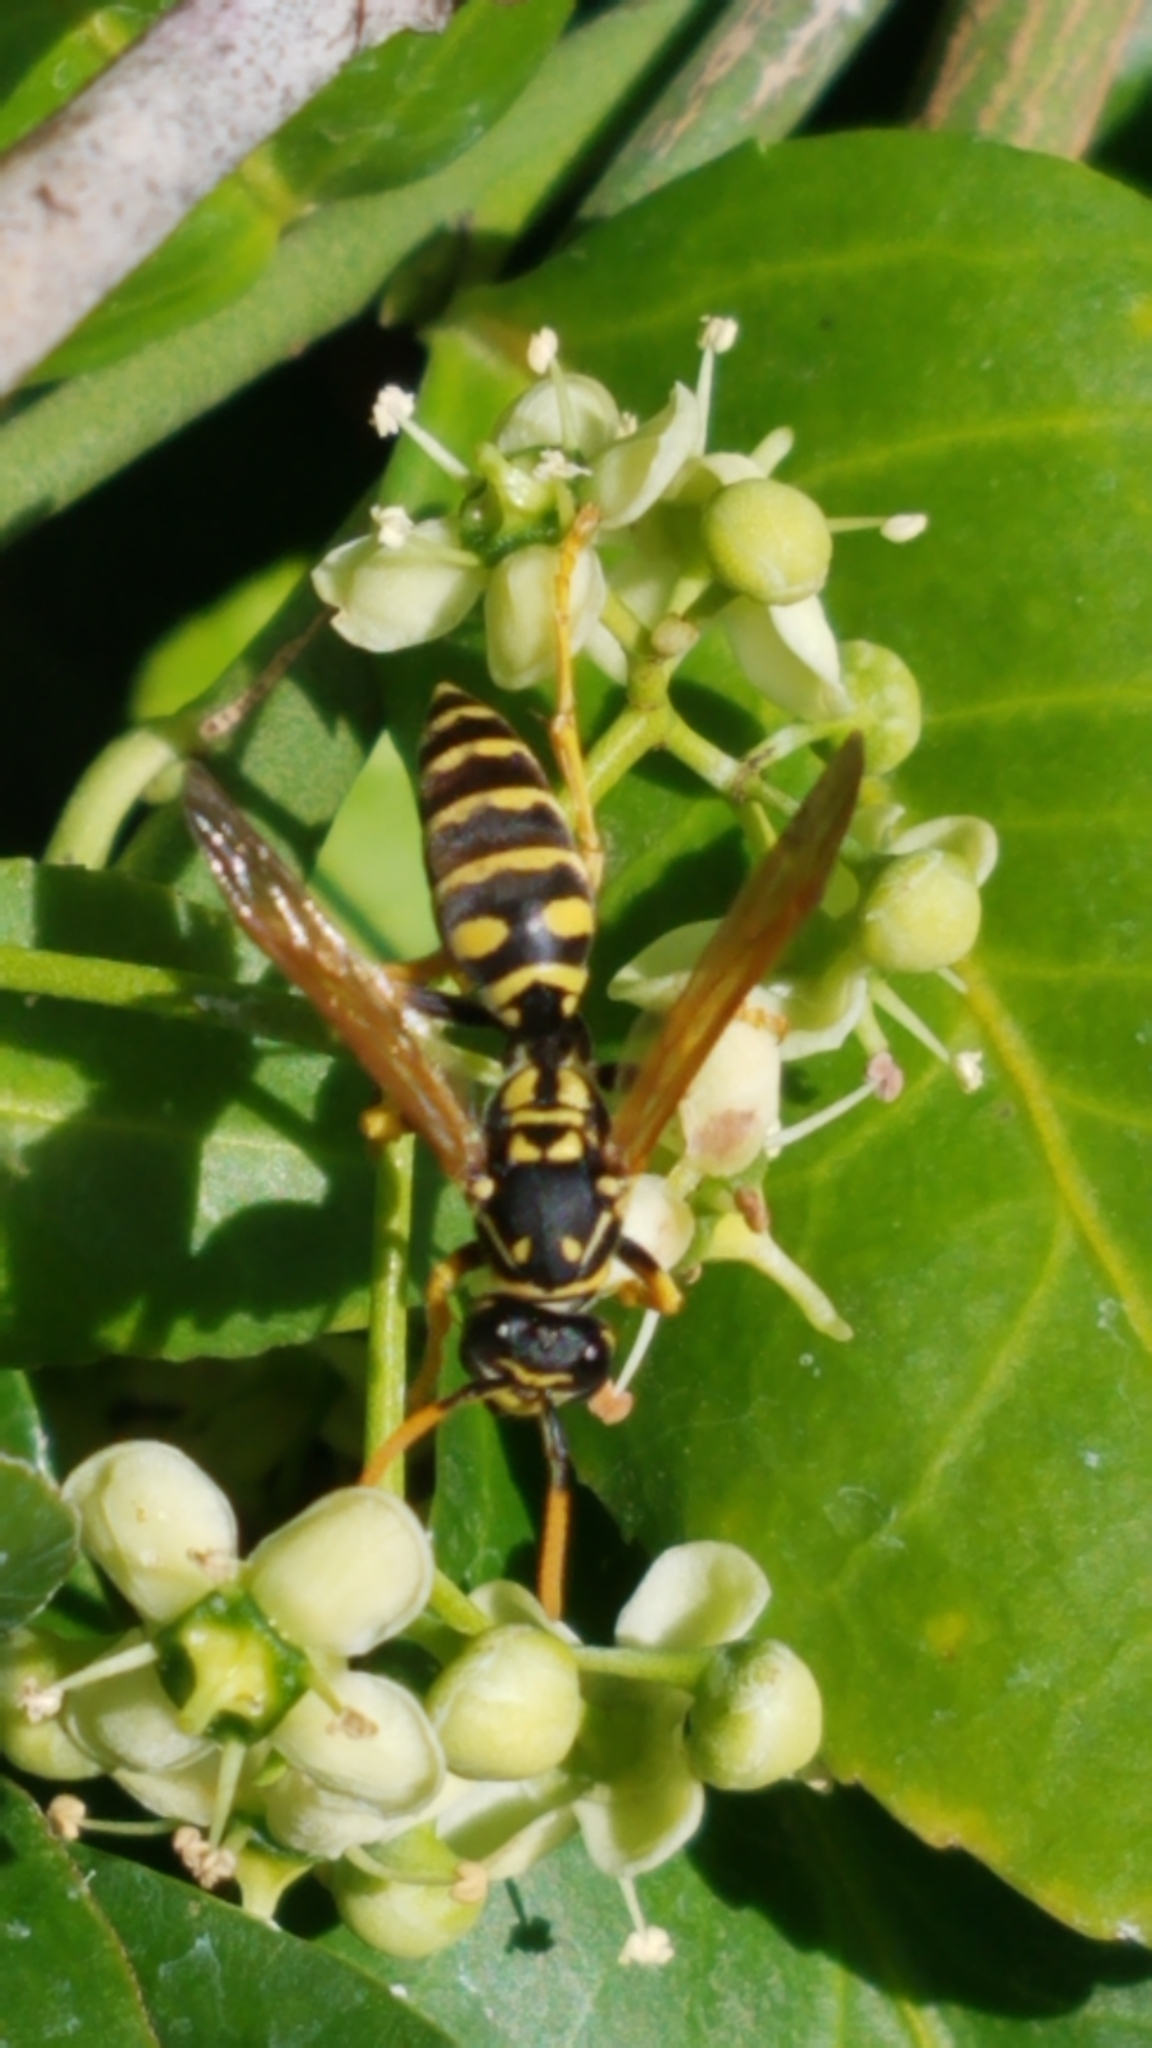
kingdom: Animalia
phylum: Arthropoda
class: Insecta
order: Hymenoptera
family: Eumenidae
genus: Polistes
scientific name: Polistes dominula
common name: Paper wasp
